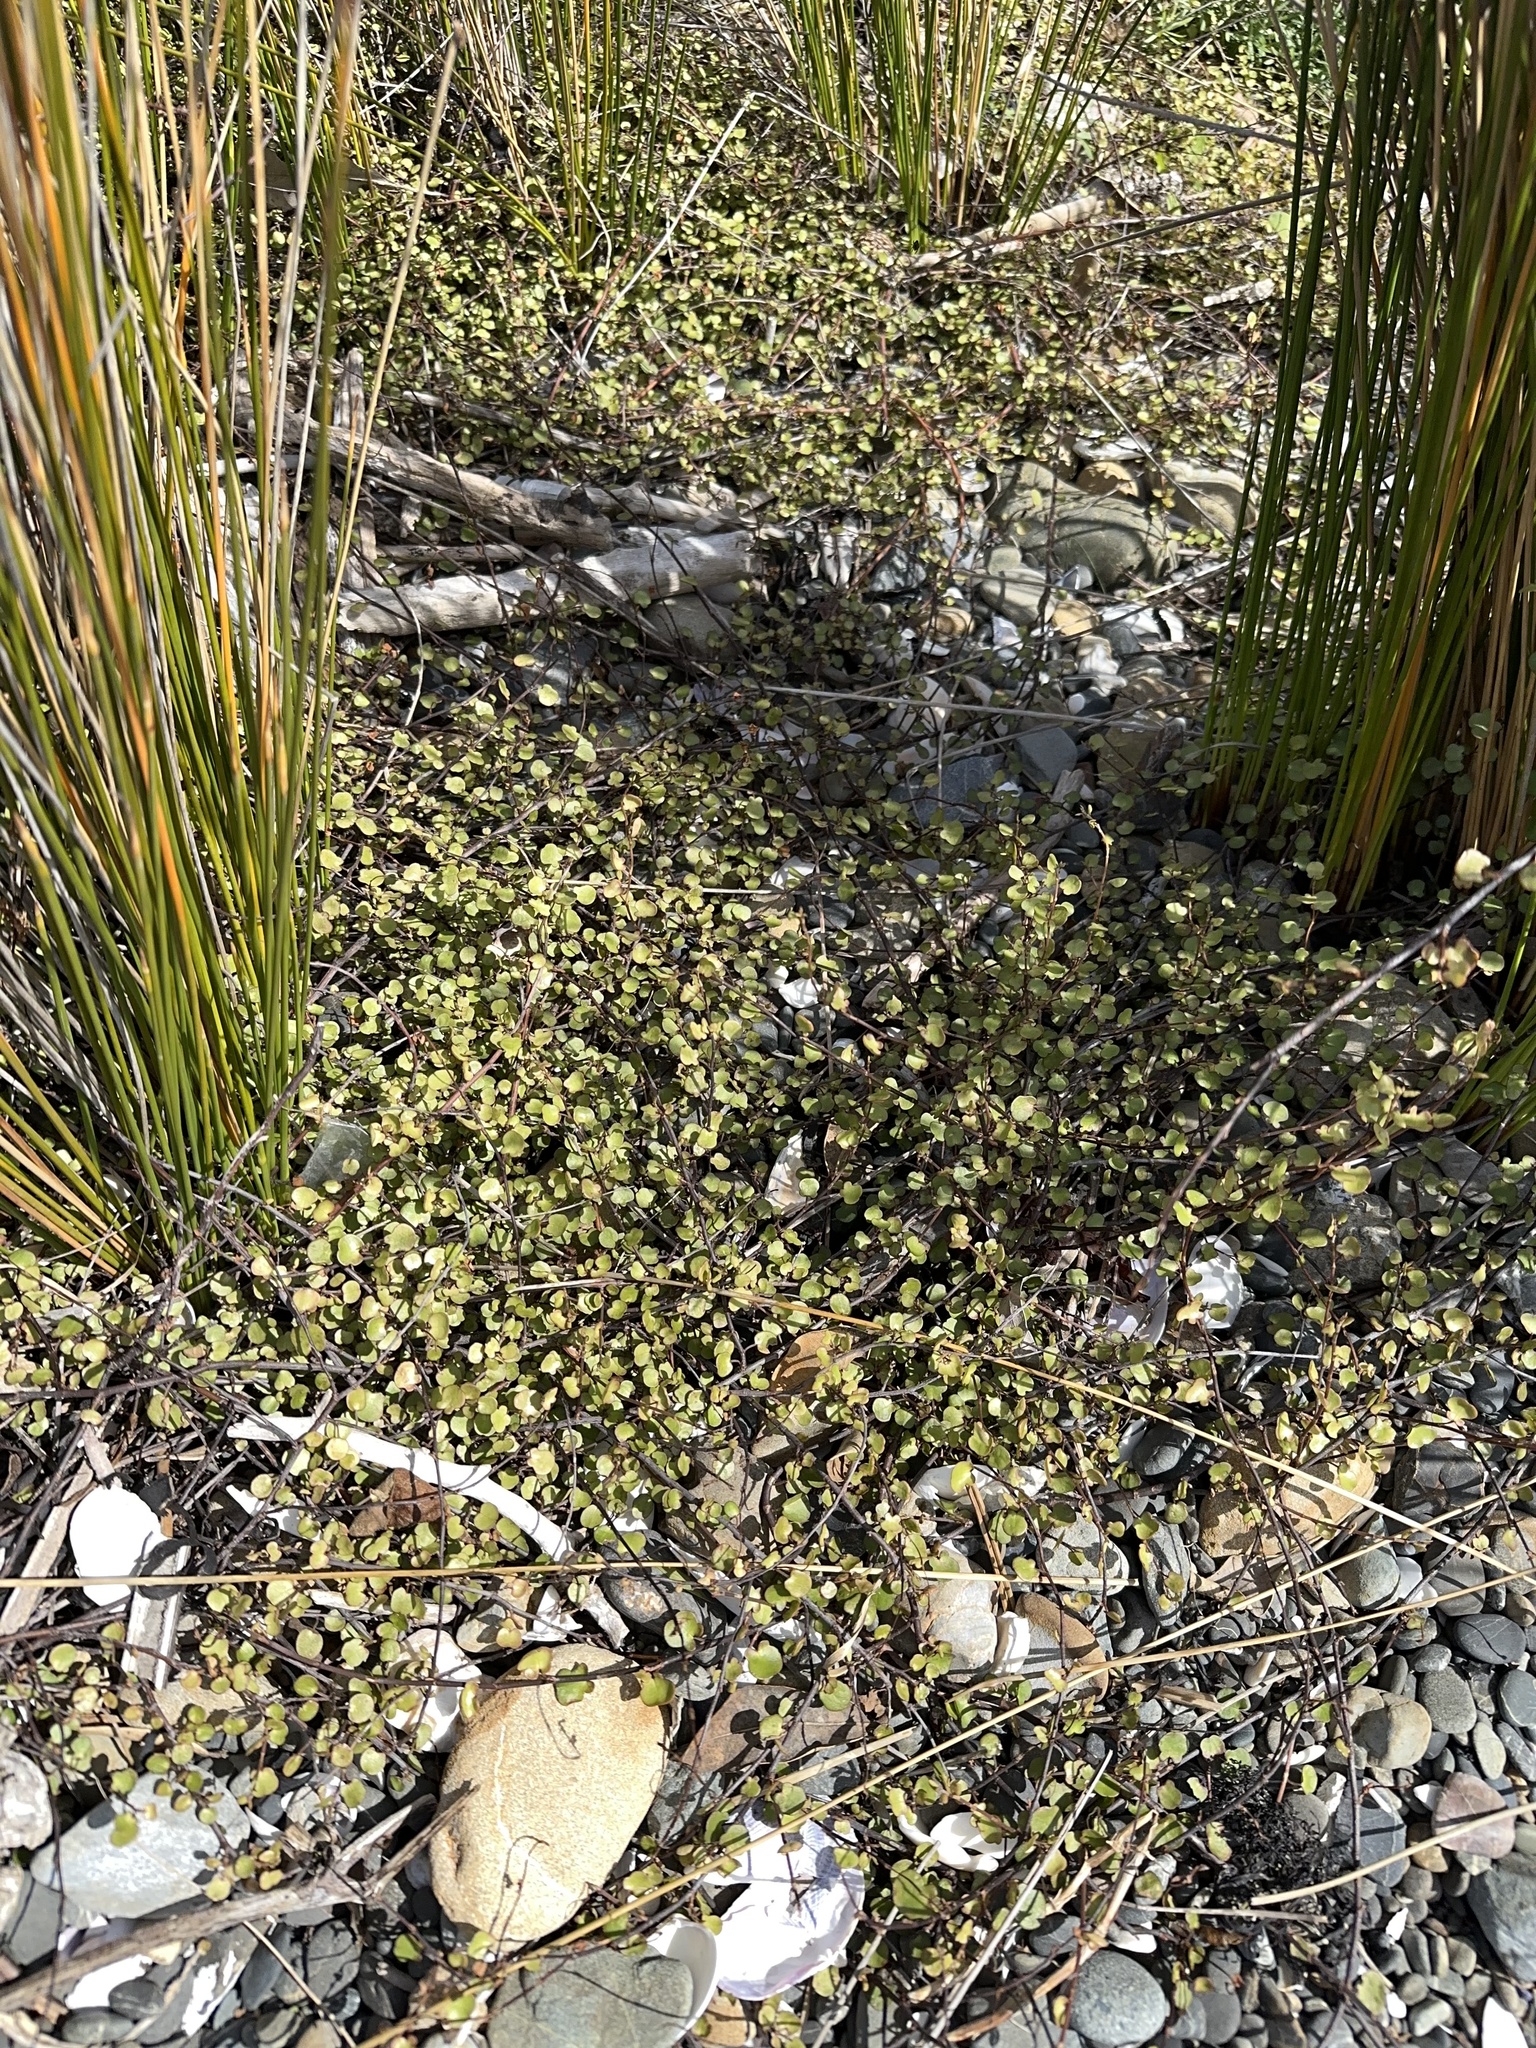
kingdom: Plantae
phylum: Tracheophyta
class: Magnoliopsida
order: Caryophyllales
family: Polygonaceae
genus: Muehlenbeckia
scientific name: Muehlenbeckia complexa
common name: Wireplant
